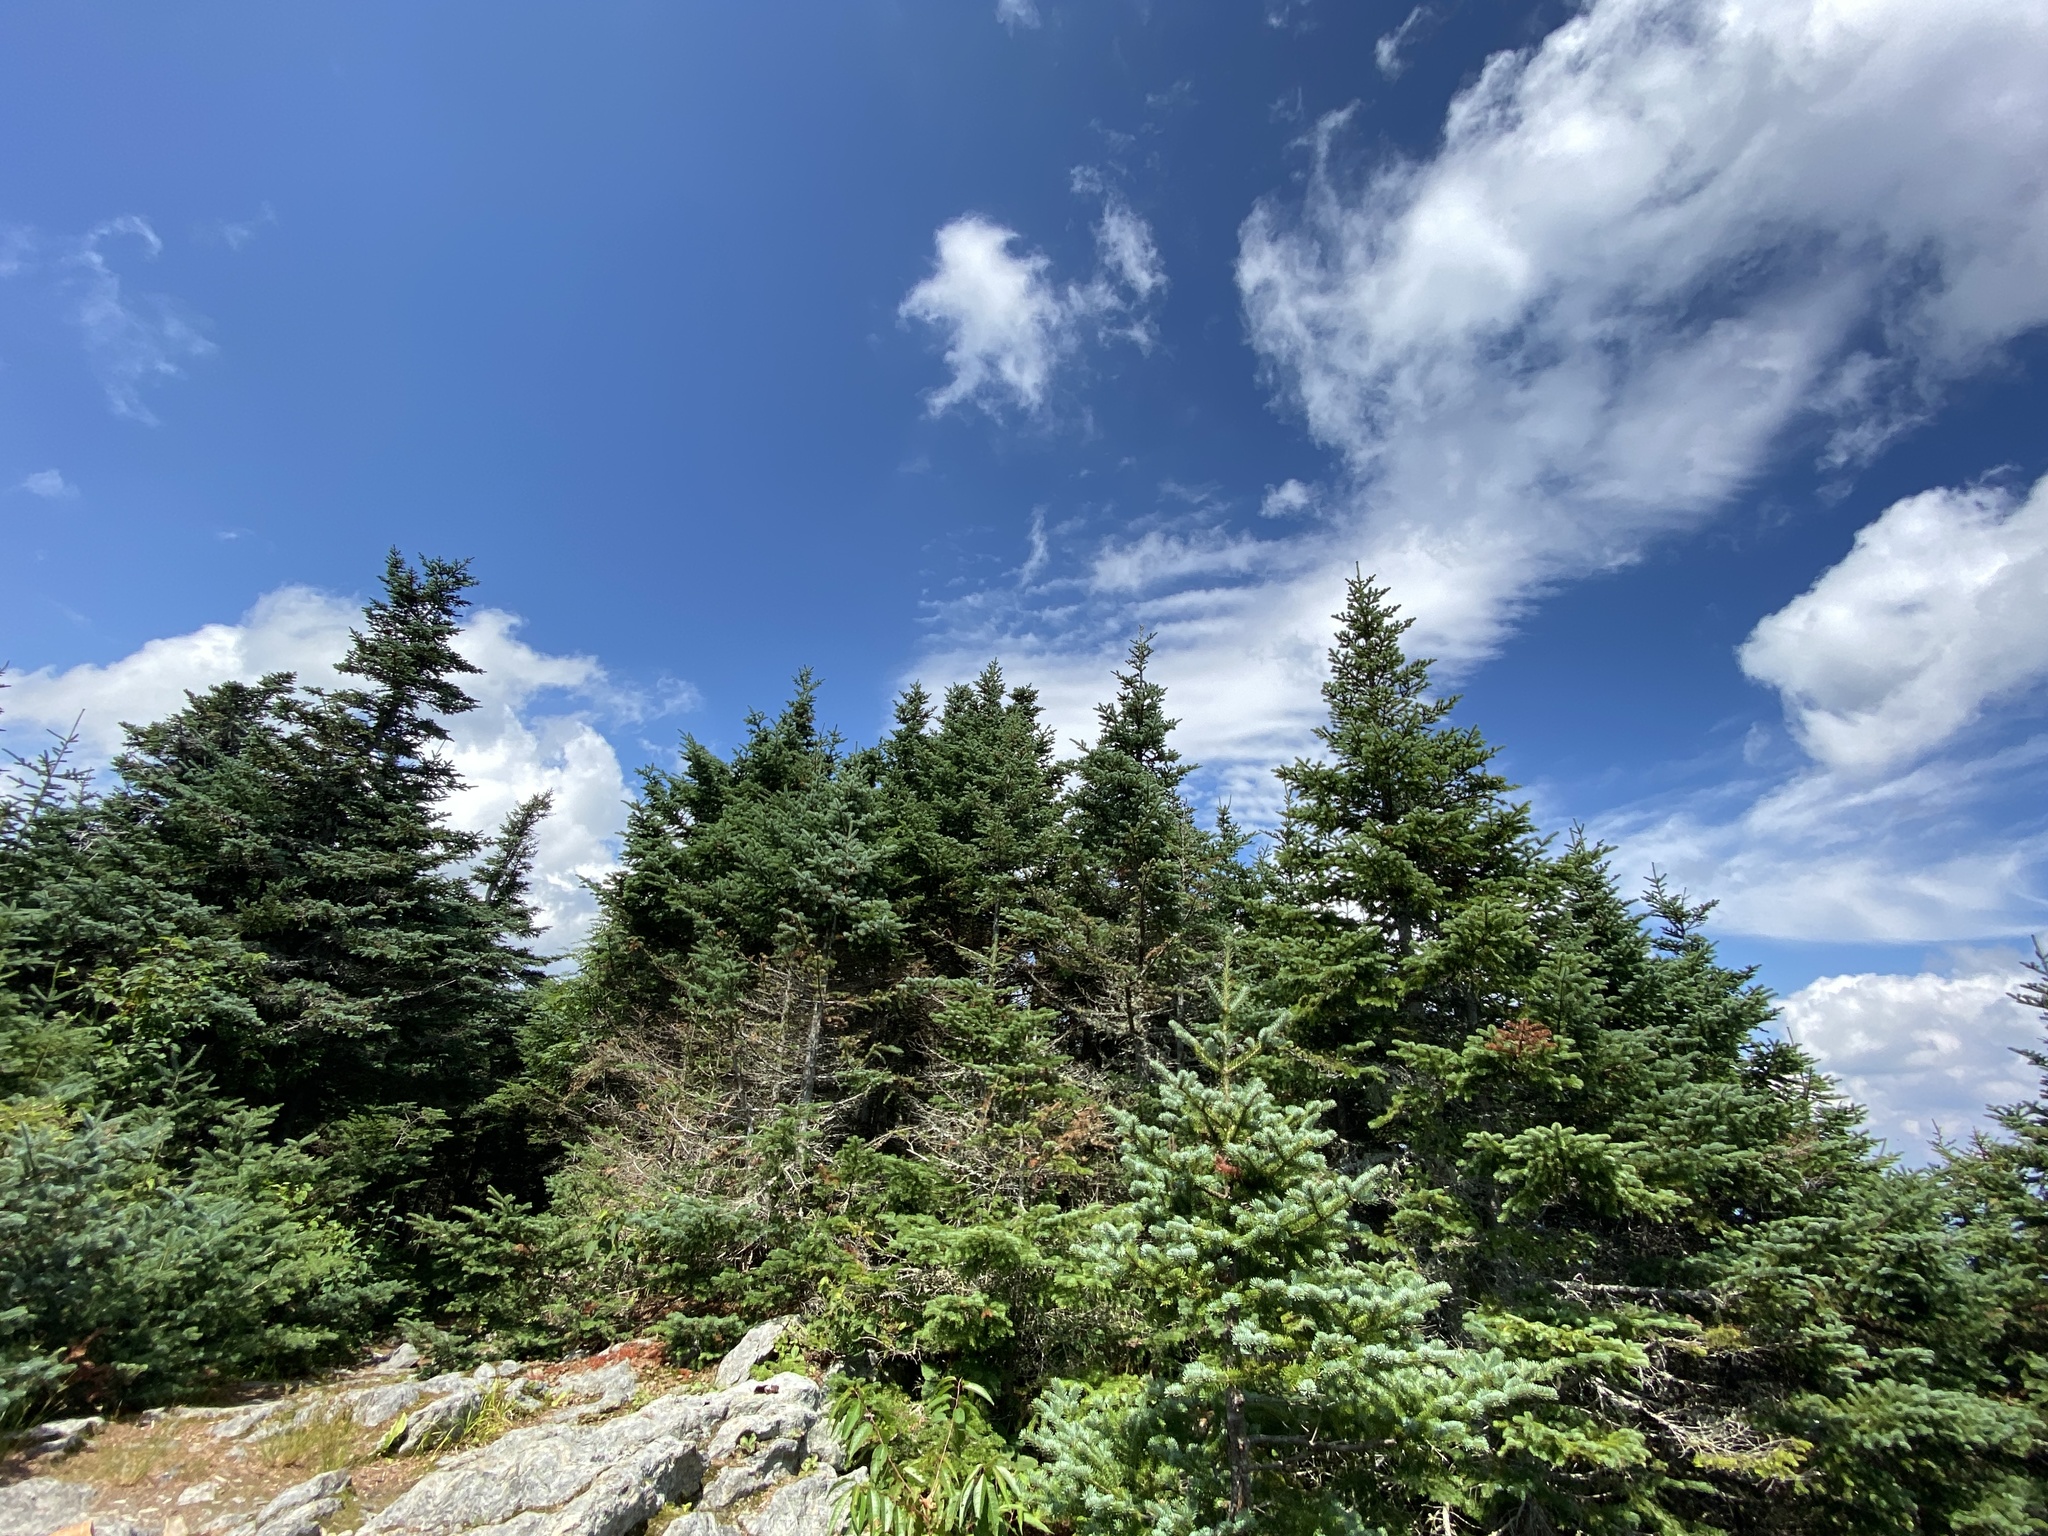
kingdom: Plantae
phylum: Tracheophyta
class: Pinopsida
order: Pinales
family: Pinaceae
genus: Abies
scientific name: Abies balsamea
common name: Balsam fir
